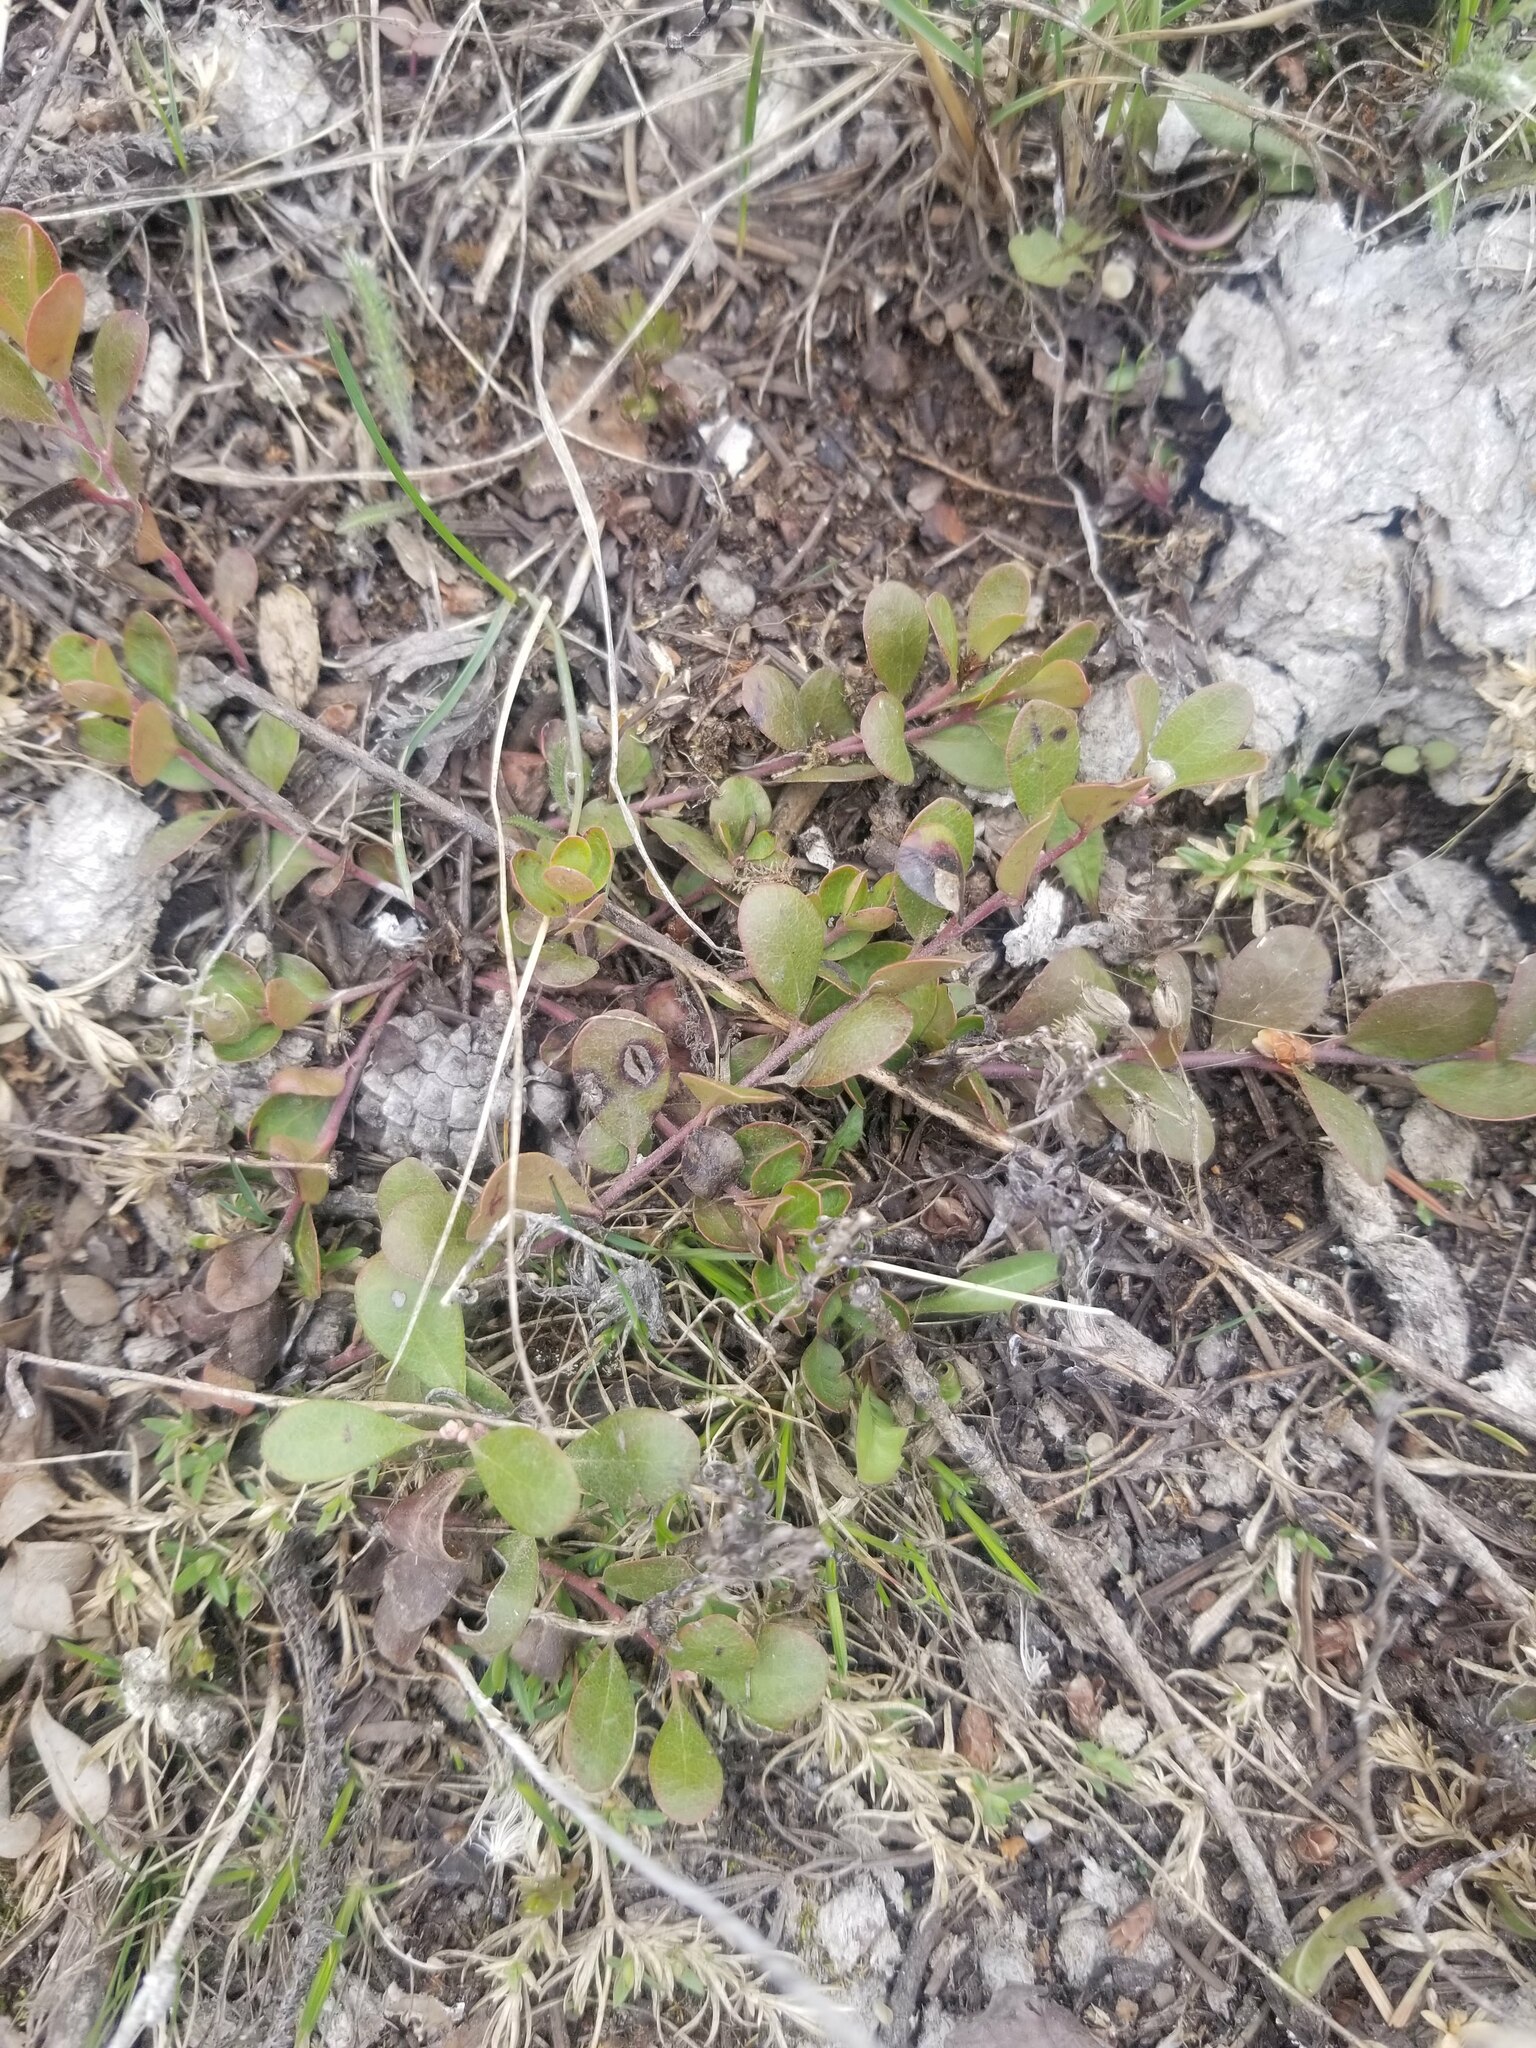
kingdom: Plantae
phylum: Tracheophyta
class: Magnoliopsida
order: Ericales
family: Ericaceae
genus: Arctostaphylos
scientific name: Arctostaphylos uva-ursi
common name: Bearberry
